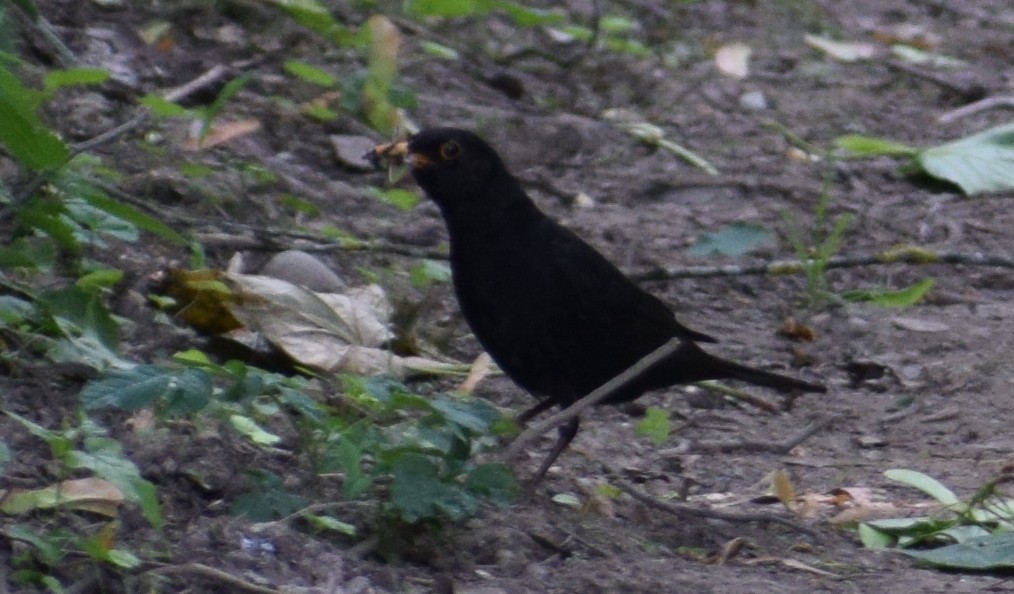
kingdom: Animalia
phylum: Chordata
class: Aves
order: Passeriformes
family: Turdidae
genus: Turdus
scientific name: Turdus merula
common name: Common blackbird
